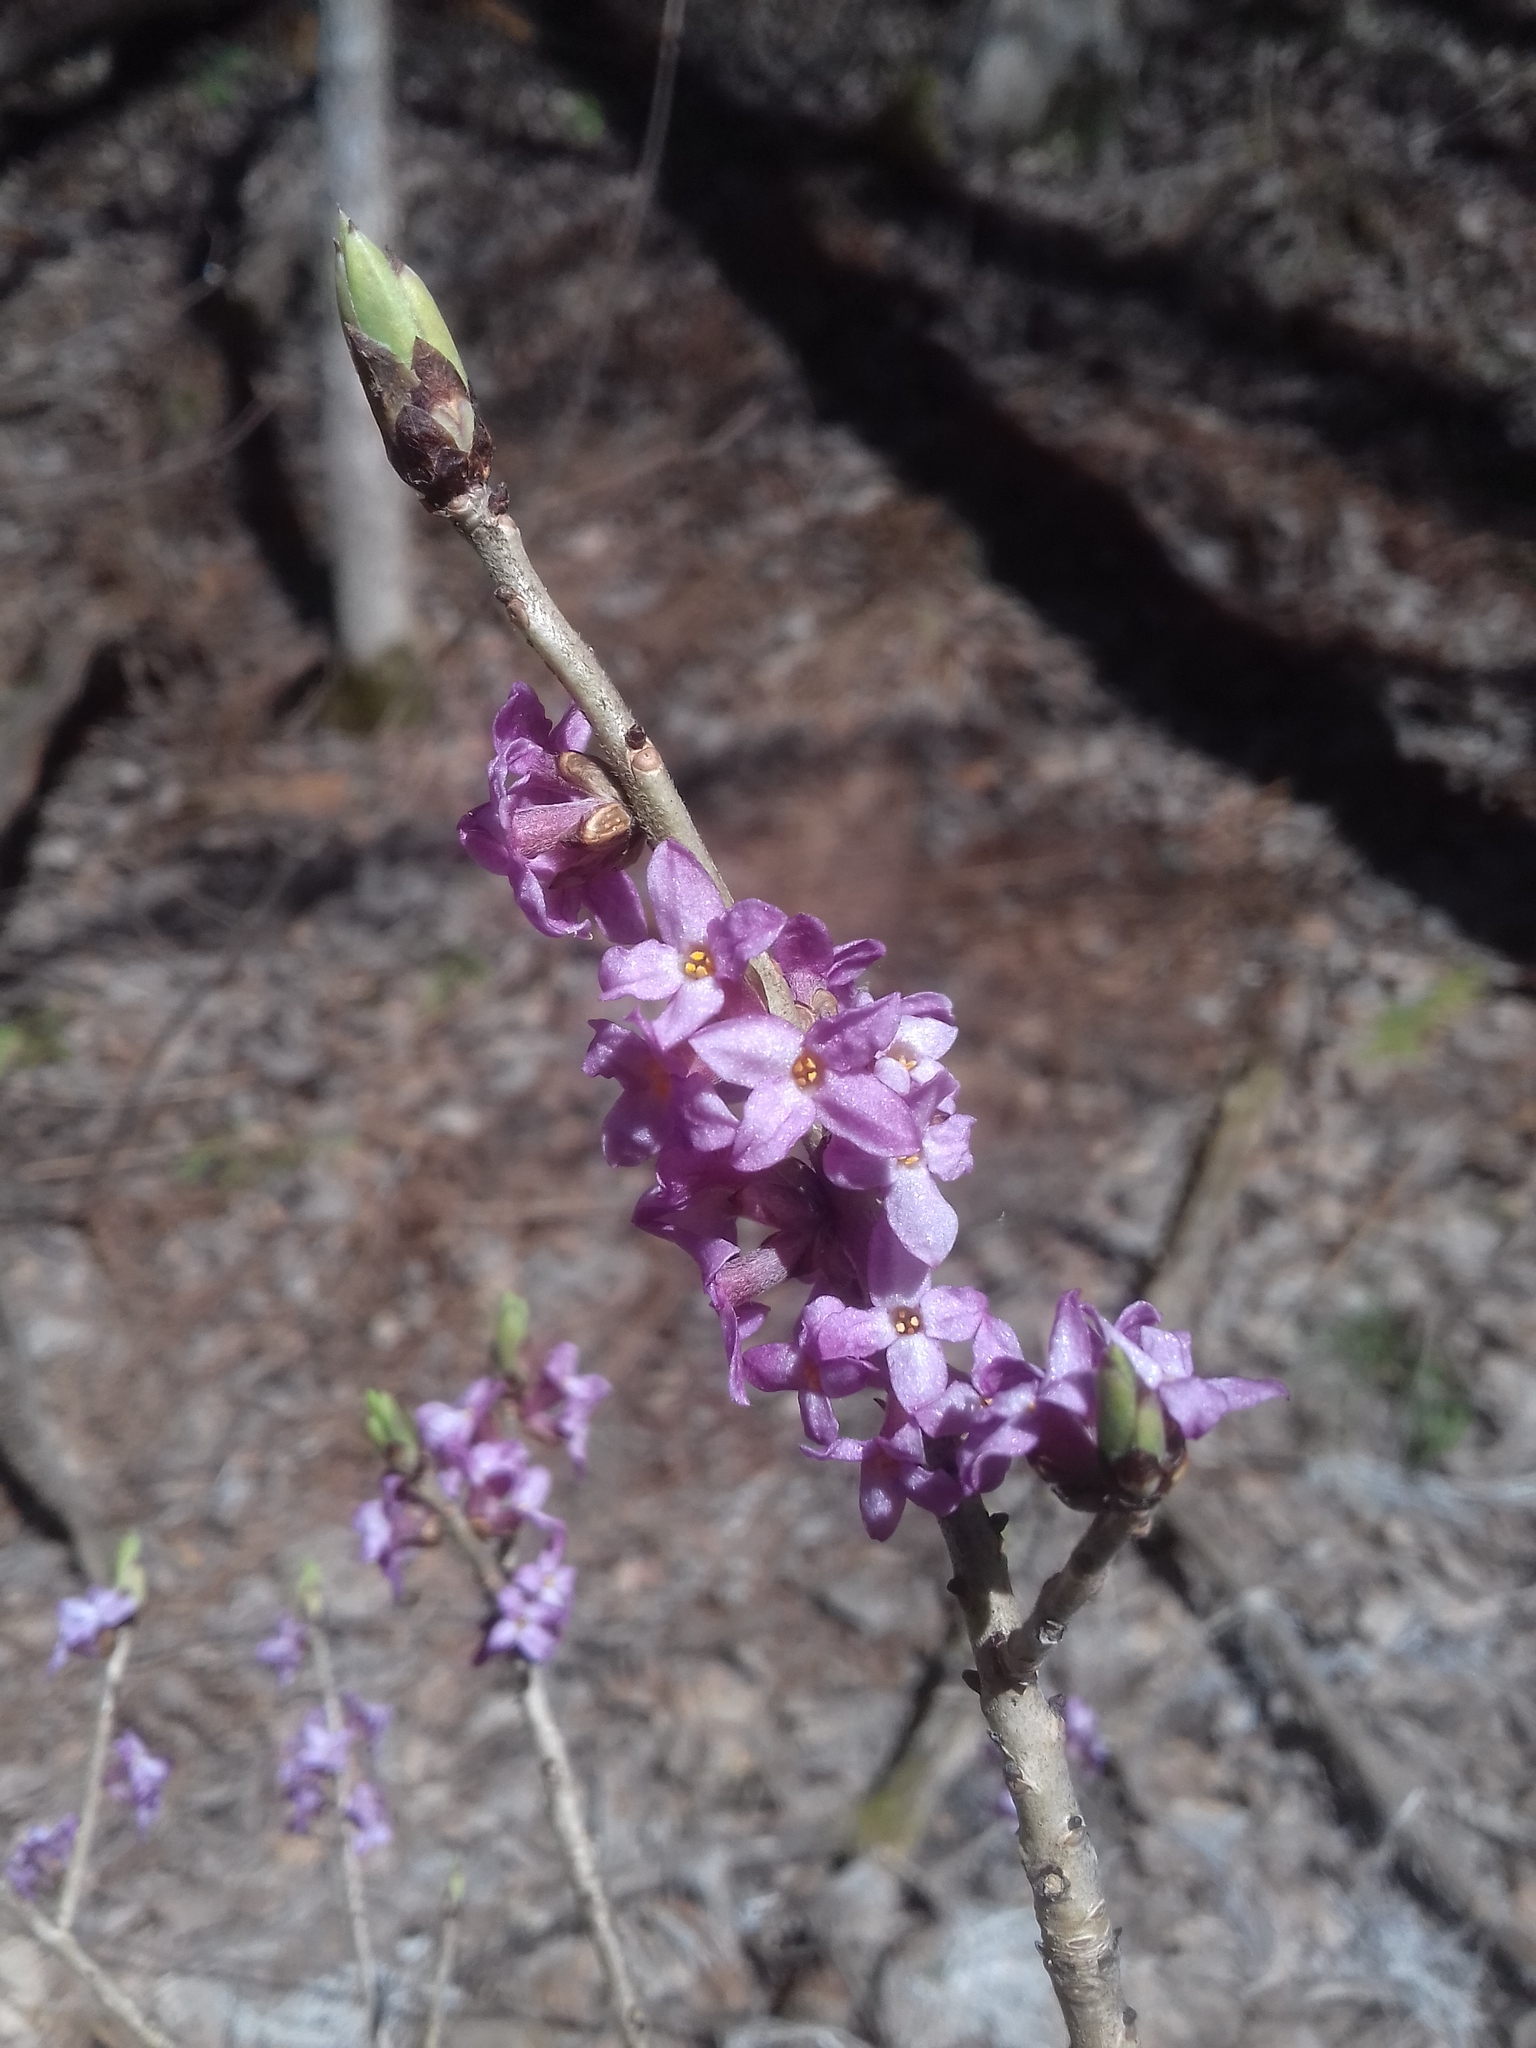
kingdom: Plantae
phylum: Tracheophyta
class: Magnoliopsida
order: Malvales
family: Thymelaeaceae
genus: Daphne
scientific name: Daphne mezereum
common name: Mezereon
